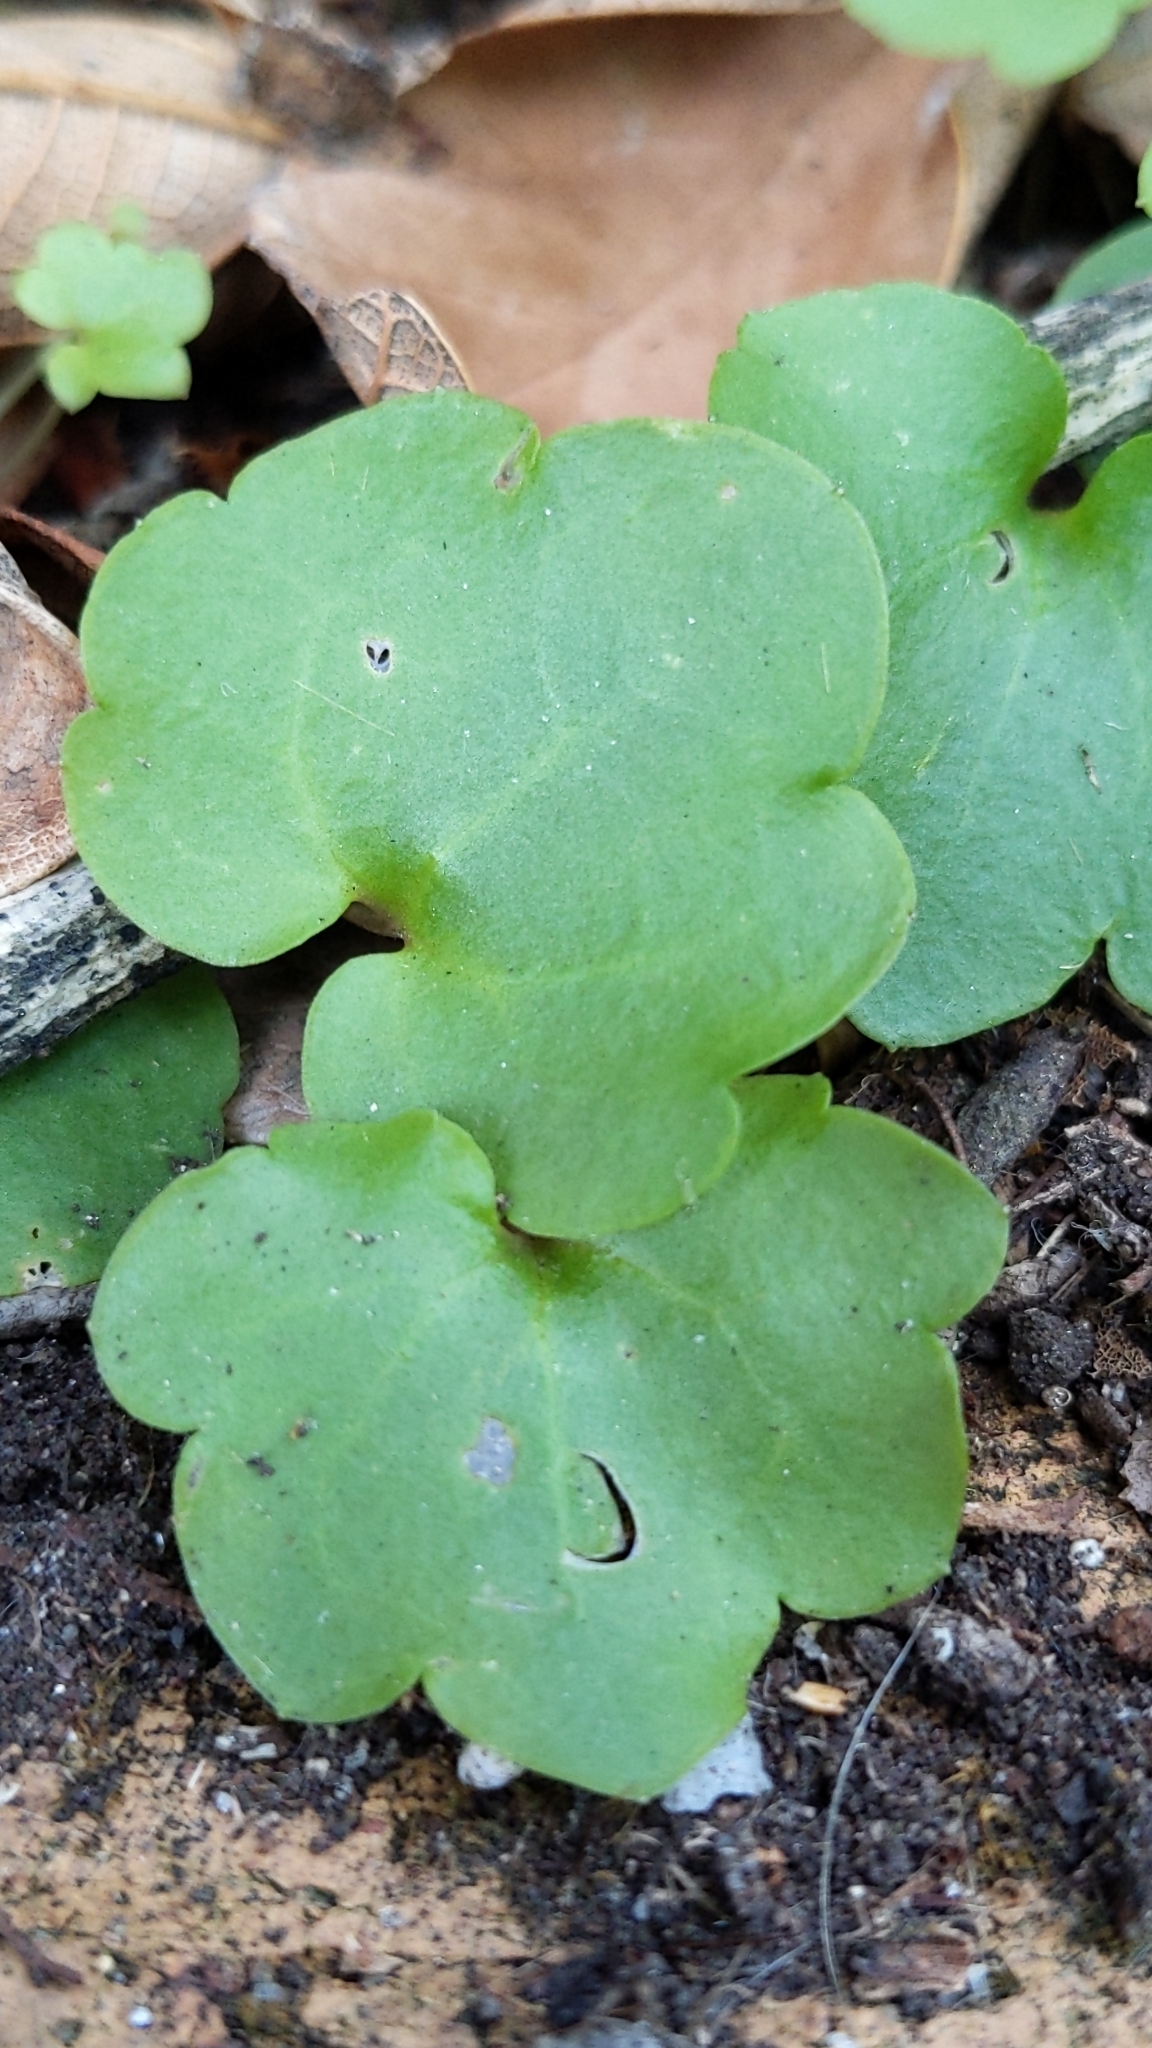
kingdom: Plantae
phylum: Tracheophyta
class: Magnoliopsida
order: Lamiales
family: Plantaginaceae
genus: Cymbalaria
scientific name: Cymbalaria muralis
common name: Ivy-leaved toadflax
